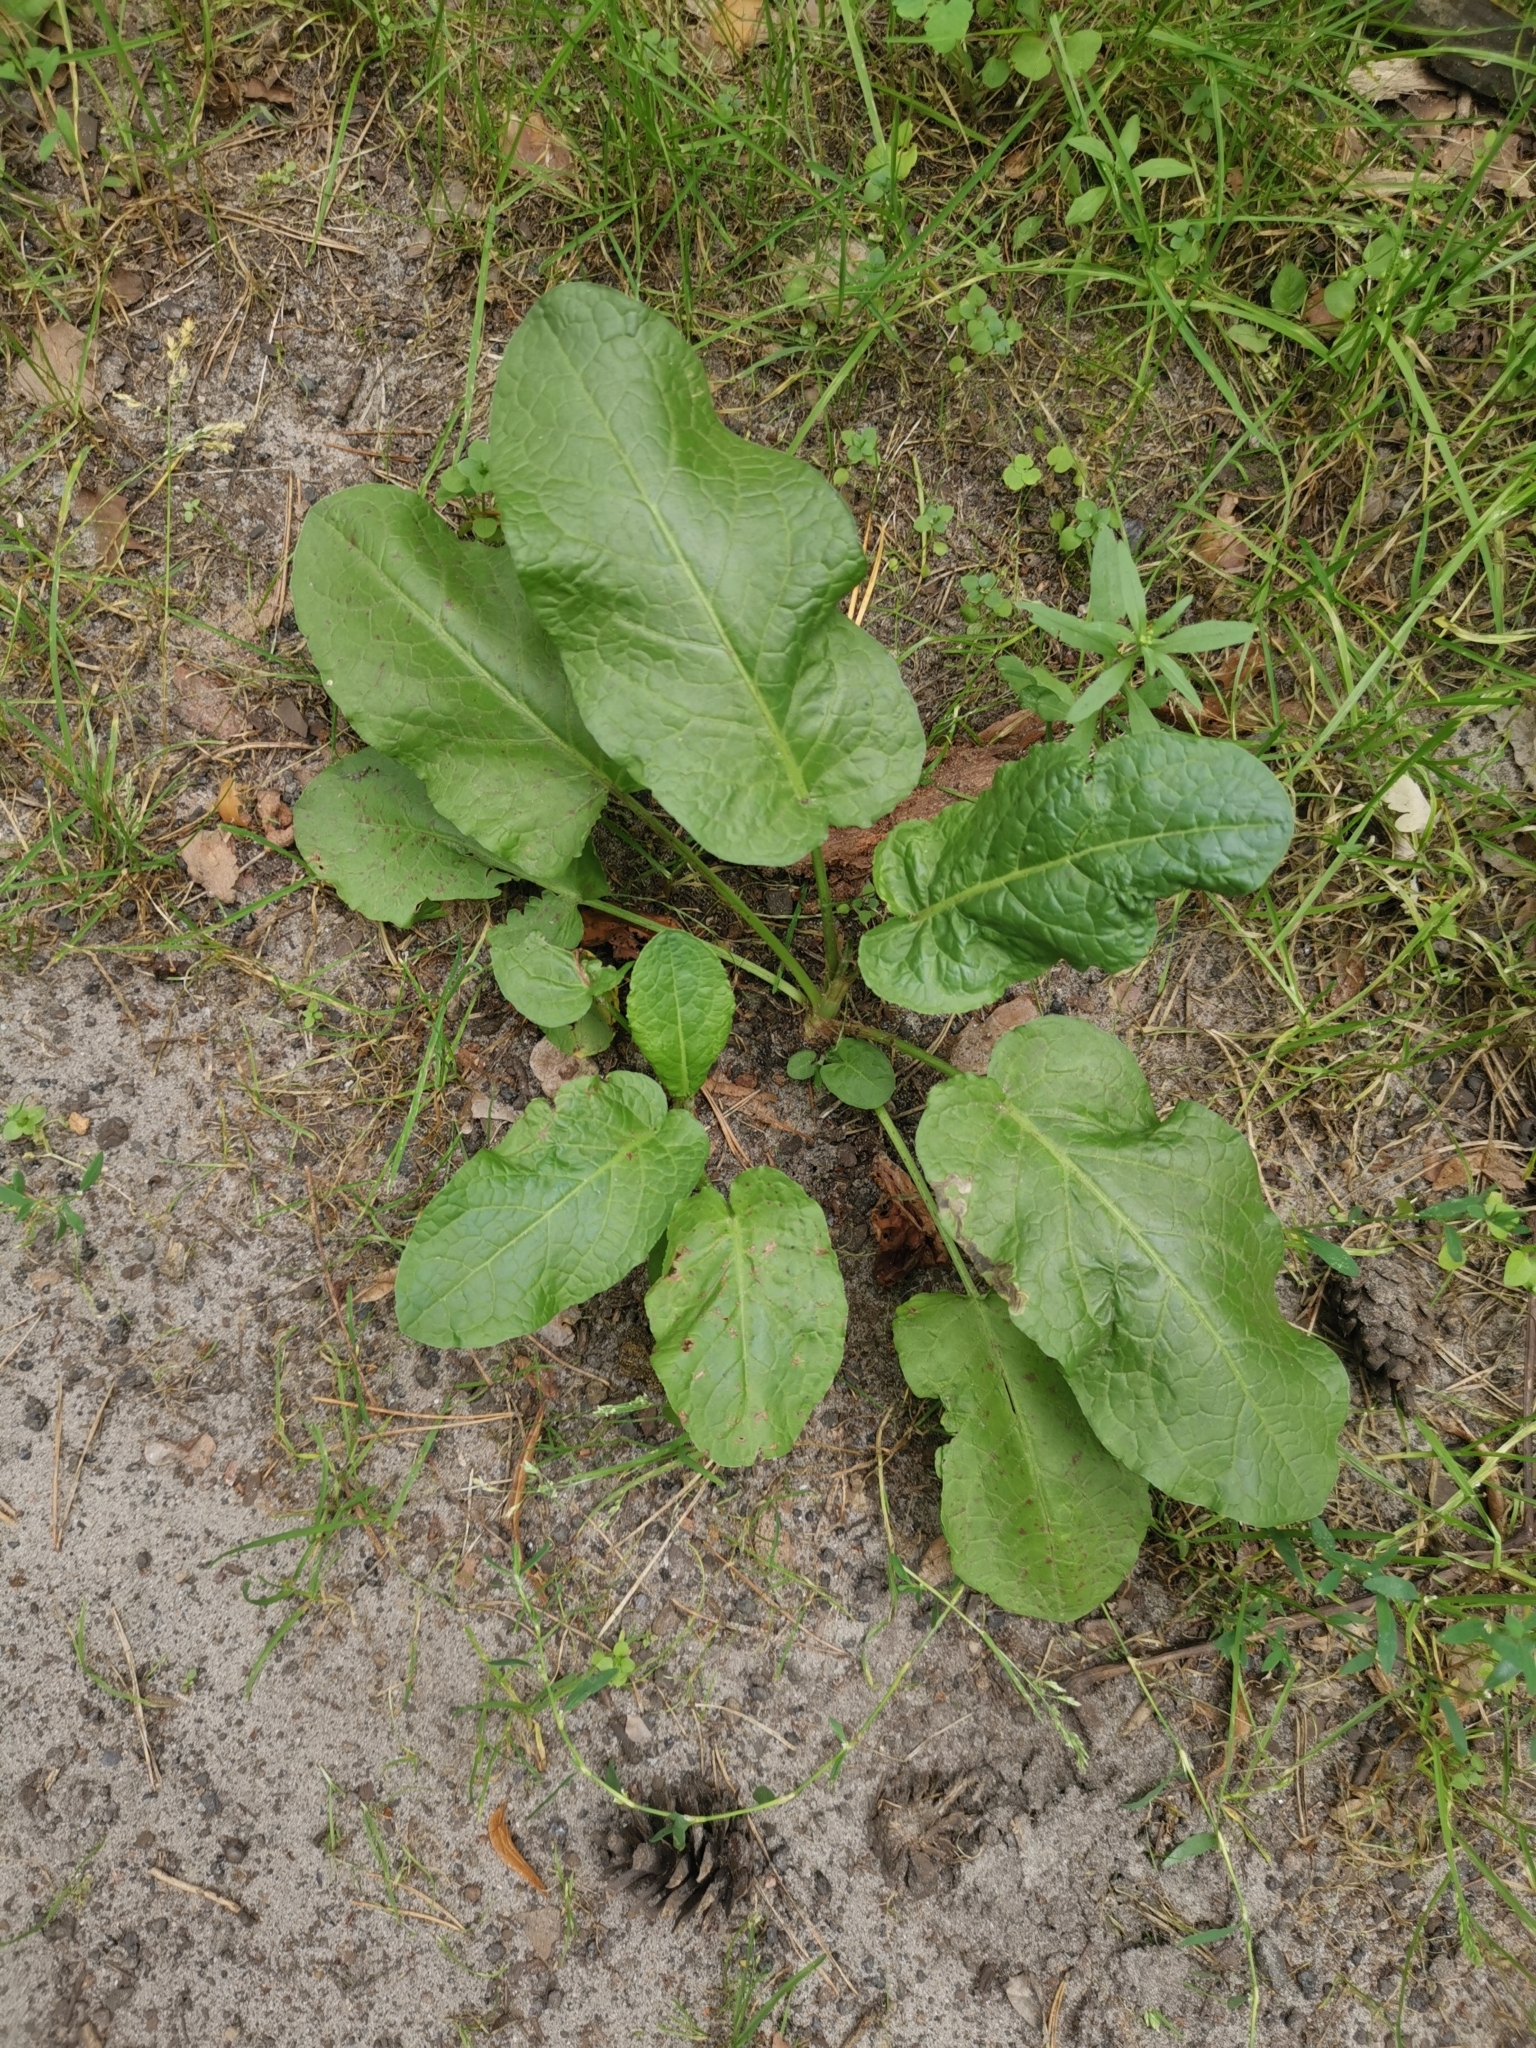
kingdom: Plantae
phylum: Tracheophyta
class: Magnoliopsida
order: Caryophyllales
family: Polygonaceae
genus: Rumex
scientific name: Rumex obtusifolius
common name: Bitter dock
